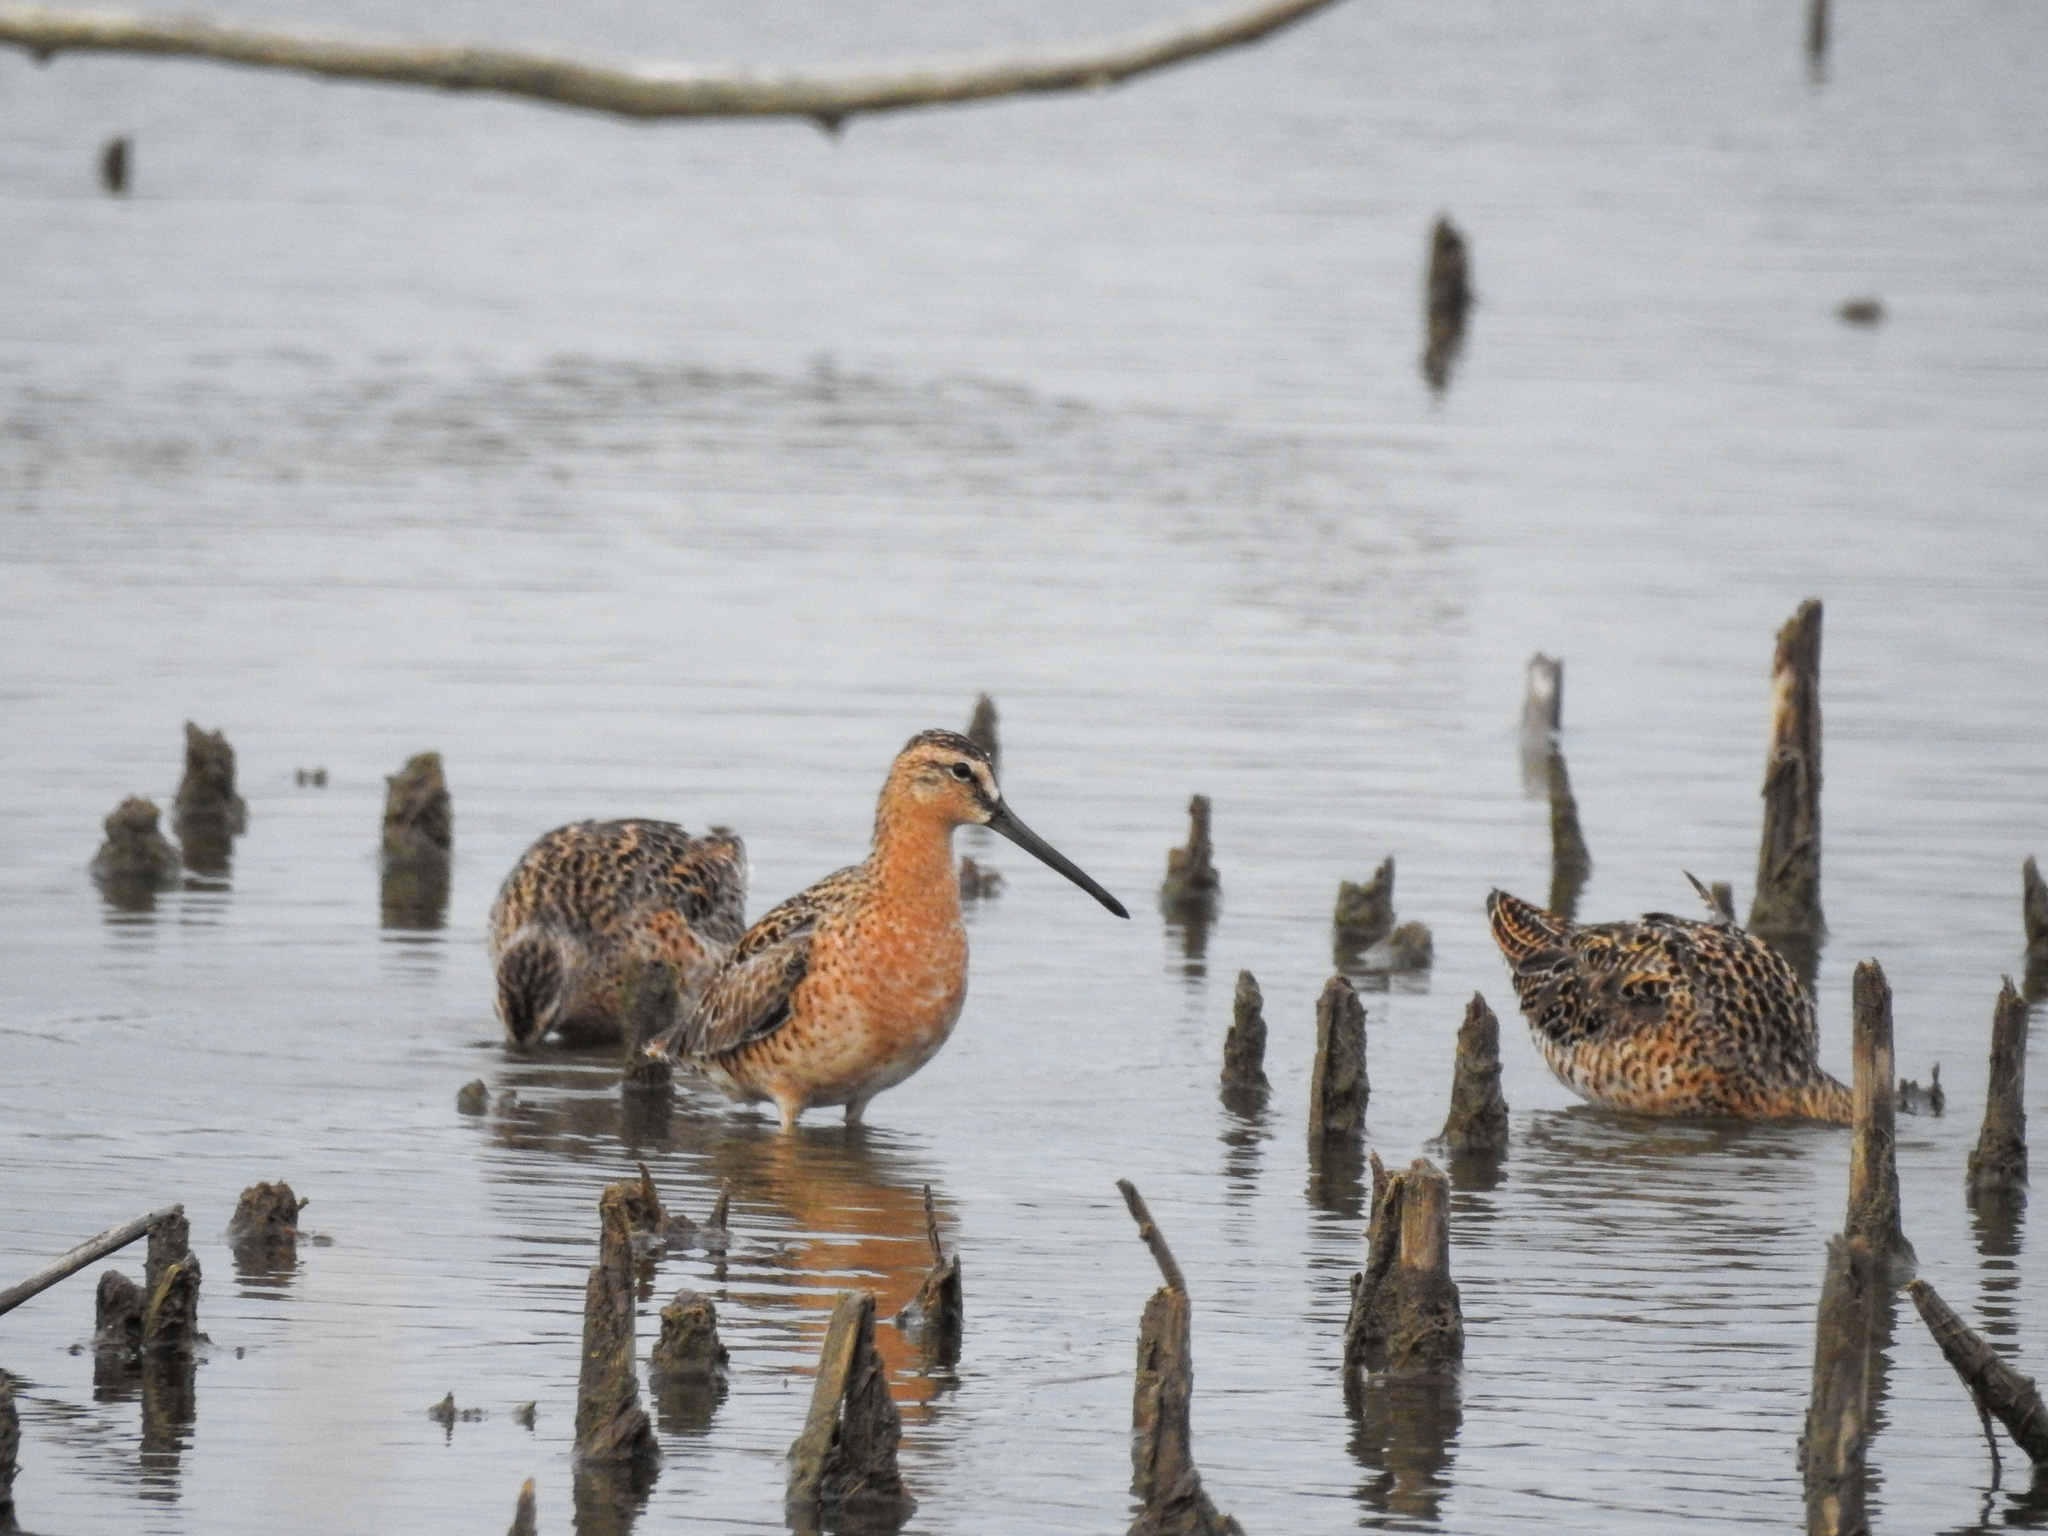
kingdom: Animalia
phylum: Chordata
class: Aves
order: Charadriiformes
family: Scolopacidae
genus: Limnodromus
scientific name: Limnodromus griseus
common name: Short-billed dowitcher
